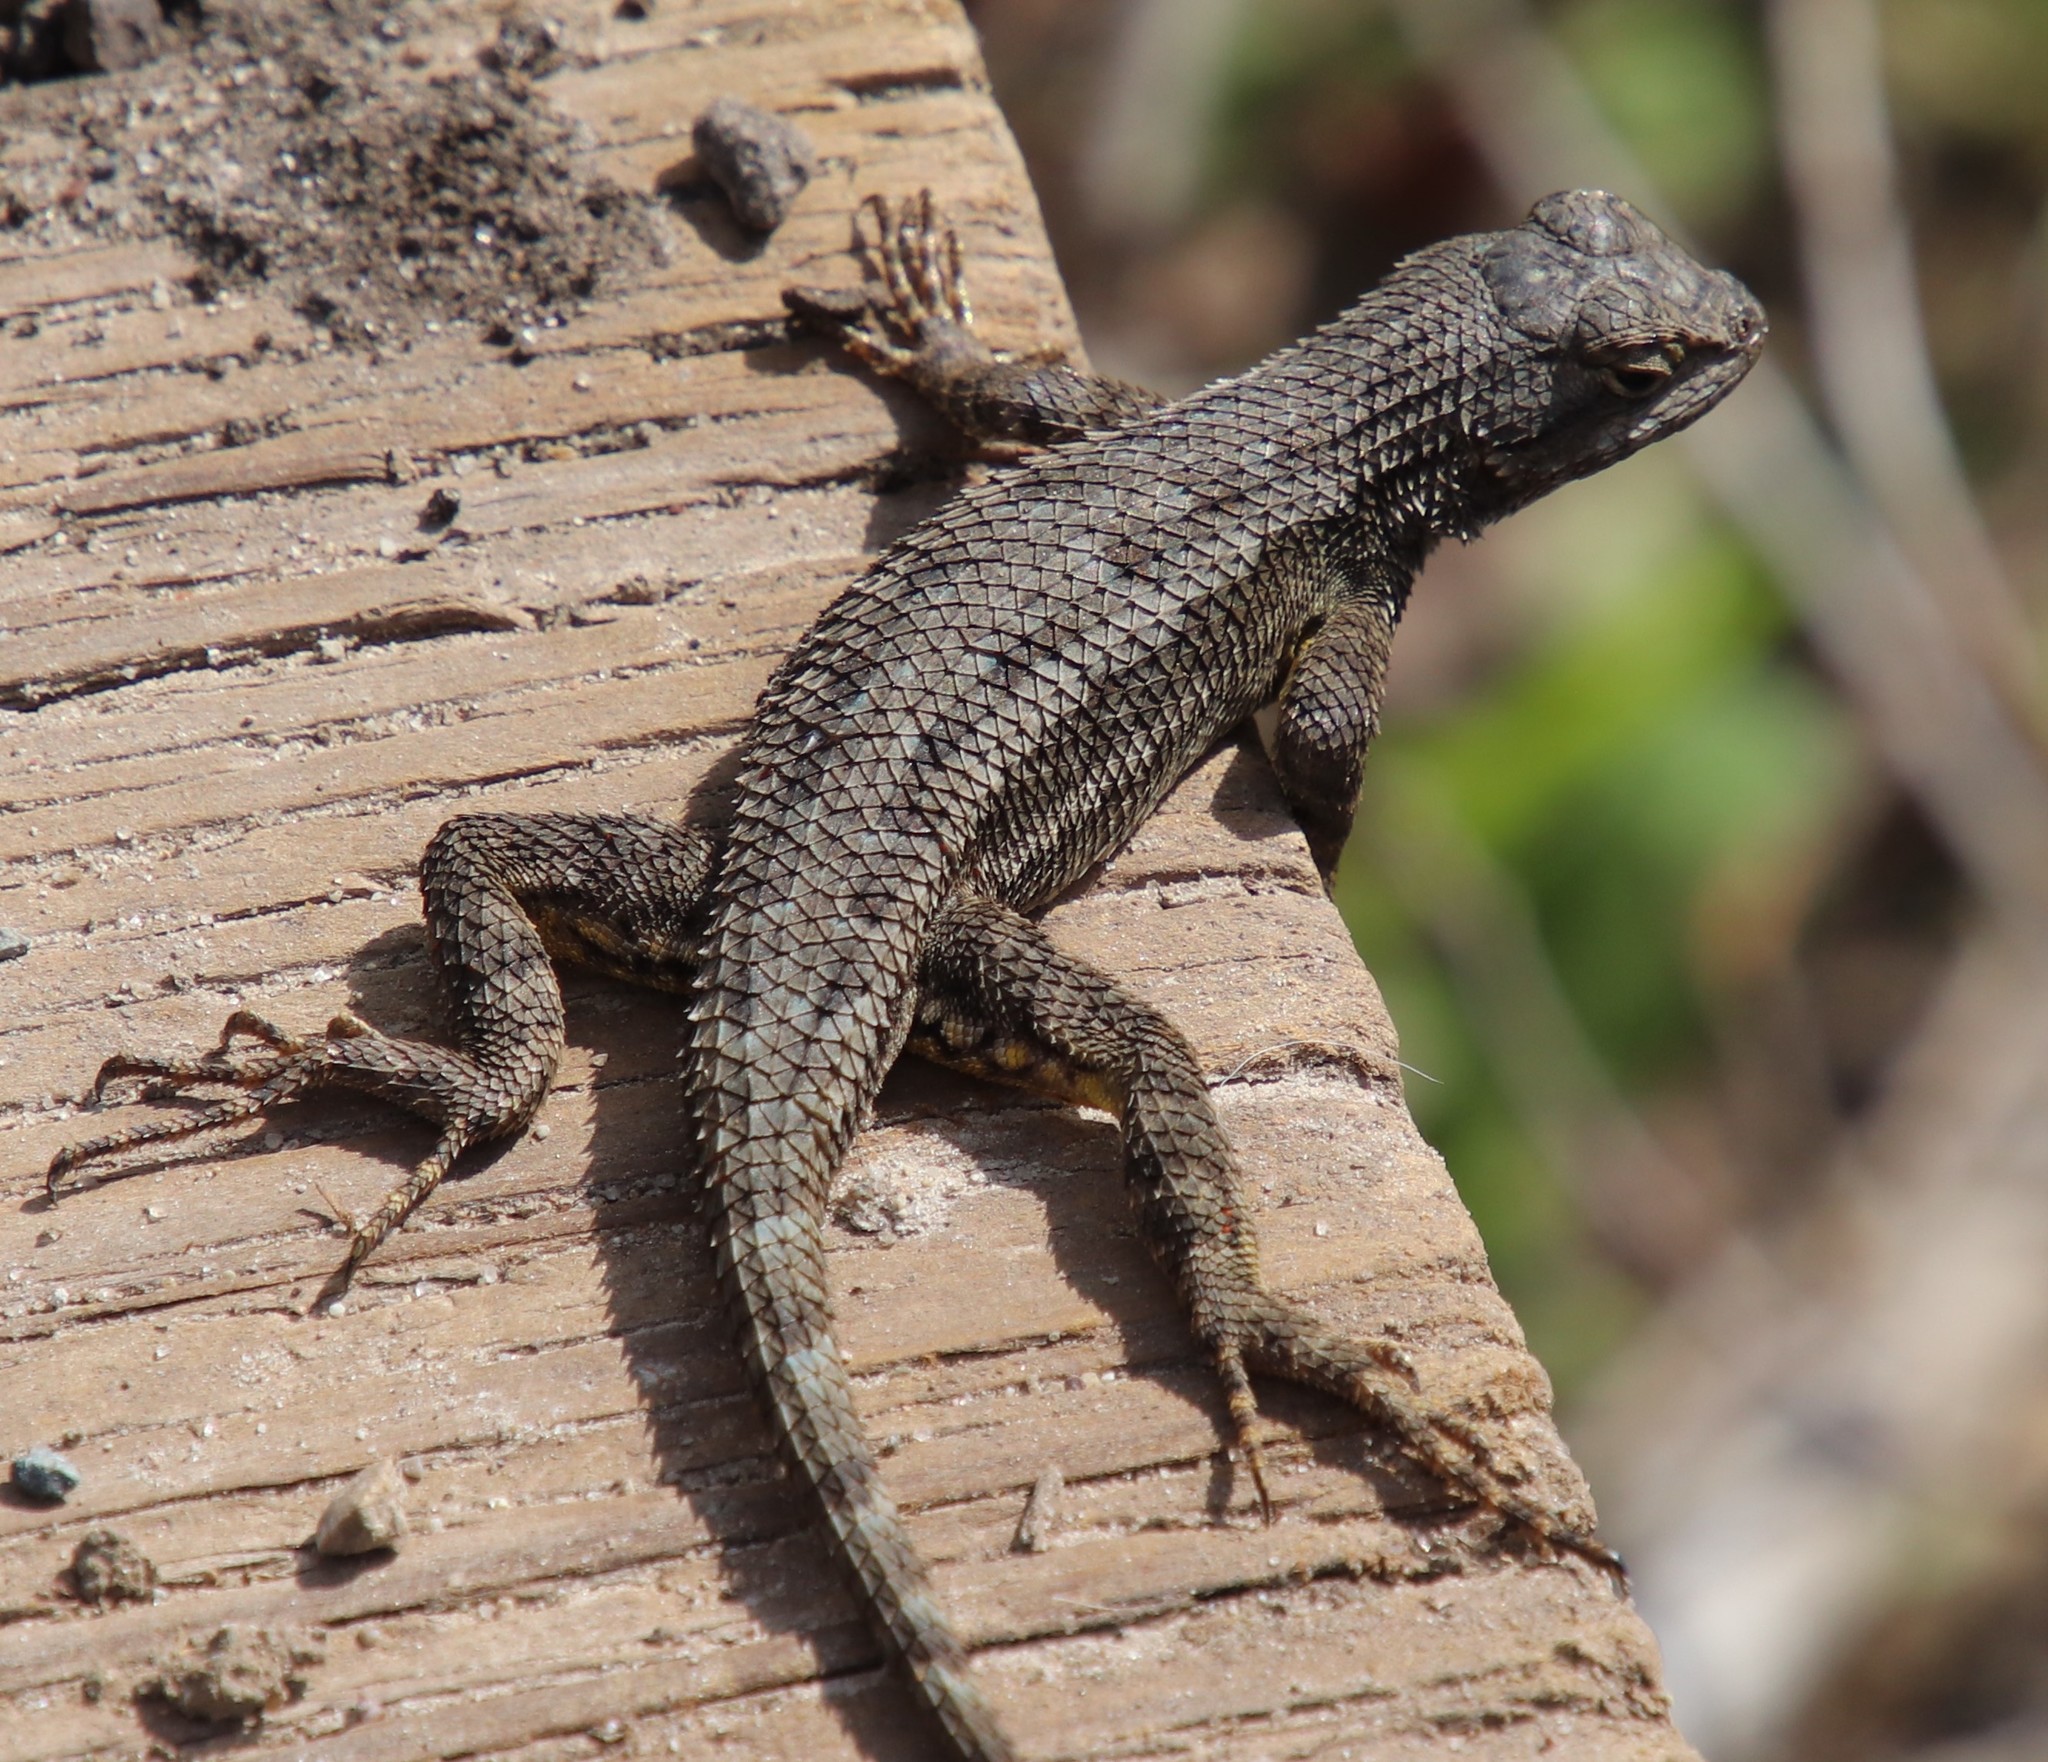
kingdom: Animalia
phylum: Chordata
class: Squamata
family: Phrynosomatidae
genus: Sceloporus
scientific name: Sceloporus occidentalis
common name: Western fence lizard
